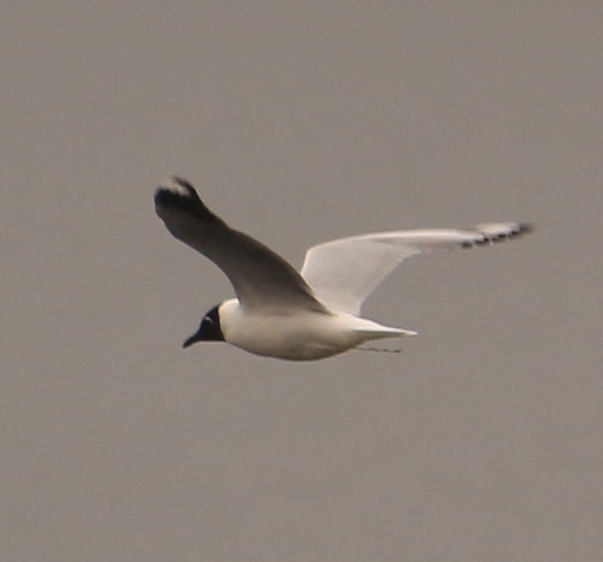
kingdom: Animalia
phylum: Chordata
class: Aves
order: Charadriiformes
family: Laridae
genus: Chroicocephalus
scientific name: Chroicocephalus serranus
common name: Andean gull
